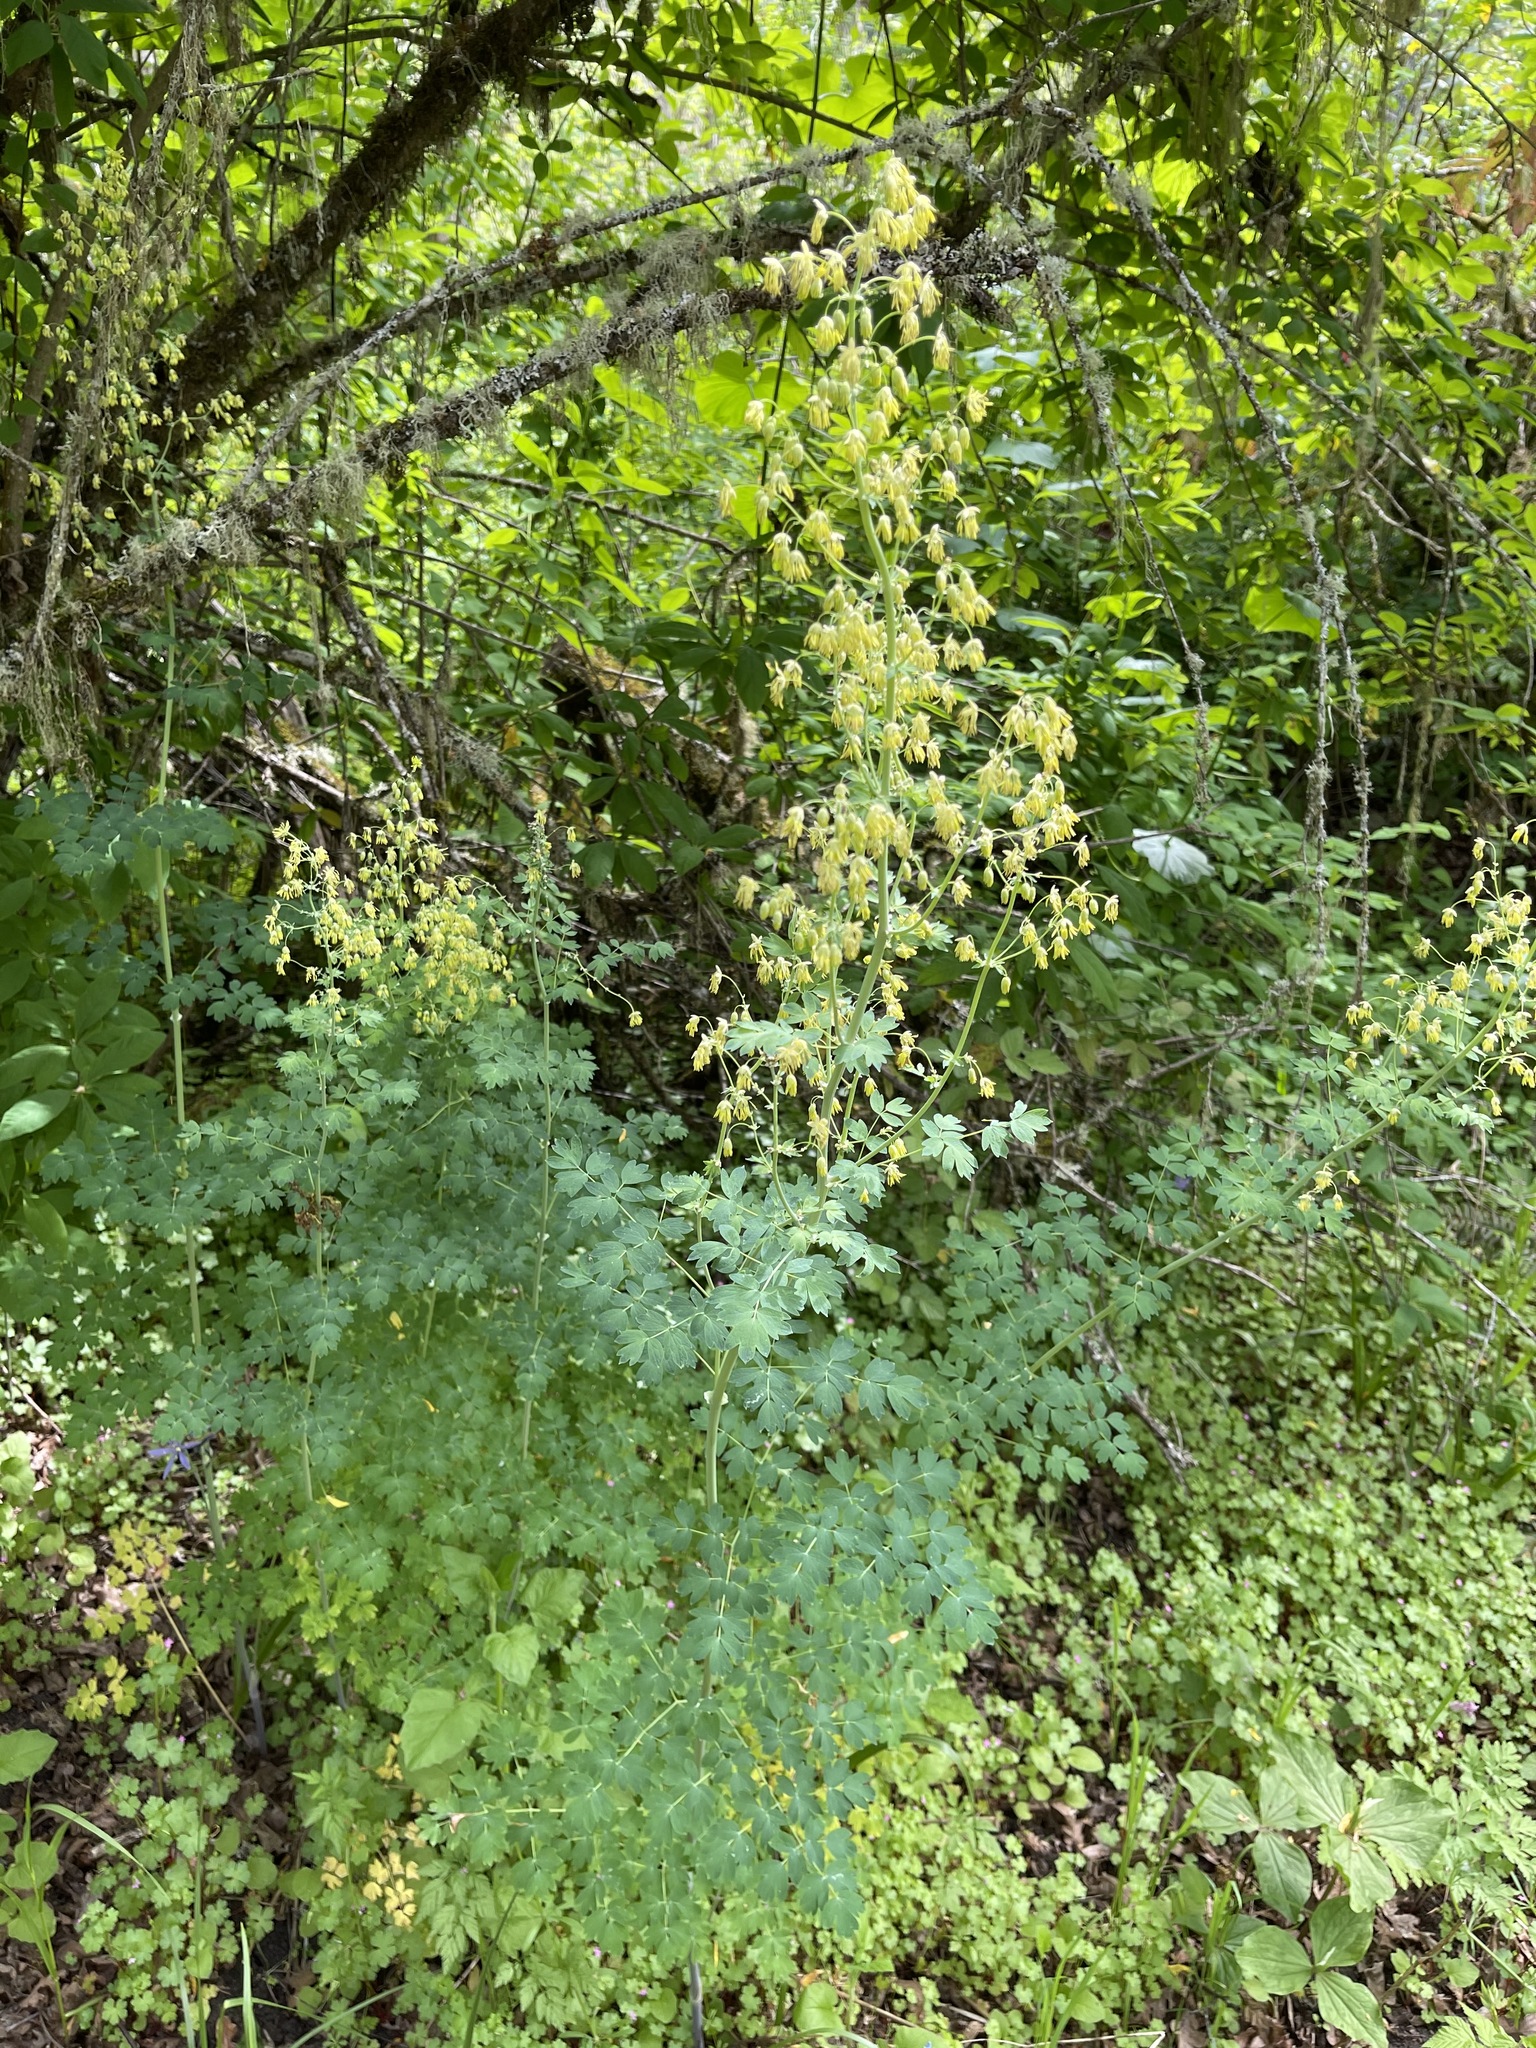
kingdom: Plantae
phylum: Tracheophyta
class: Magnoliopsida
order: Ranunculales
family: Ranunculaceae
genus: Thalictrum
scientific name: Thalictrum fendleri
